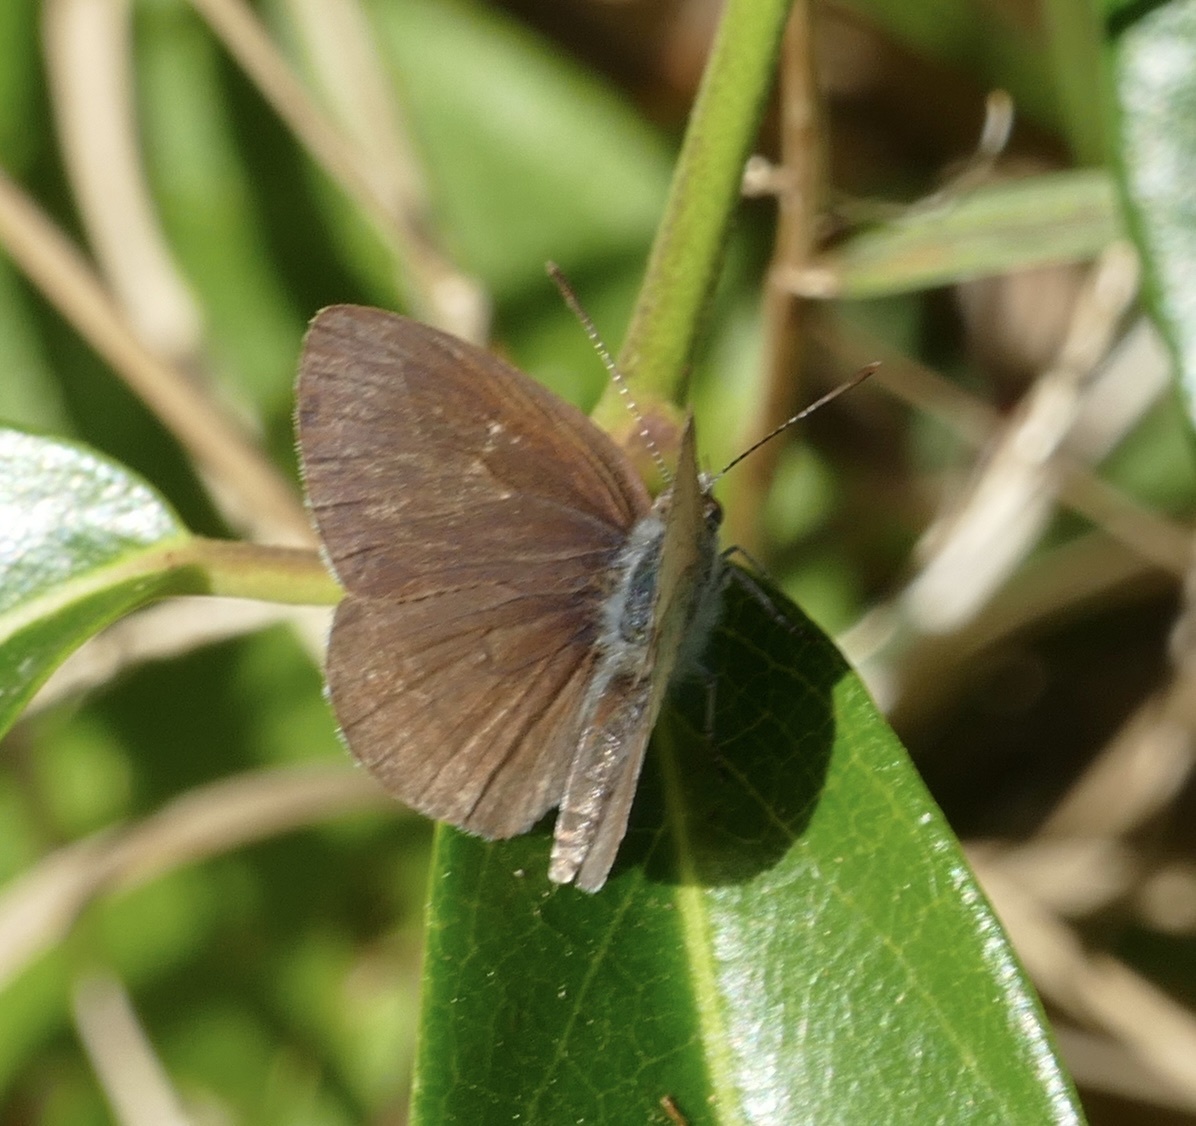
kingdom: Animalia
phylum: Arthropoda
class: Insecta
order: Lepidoptera
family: Lycaenidae
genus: Candalides
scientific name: Candalides
